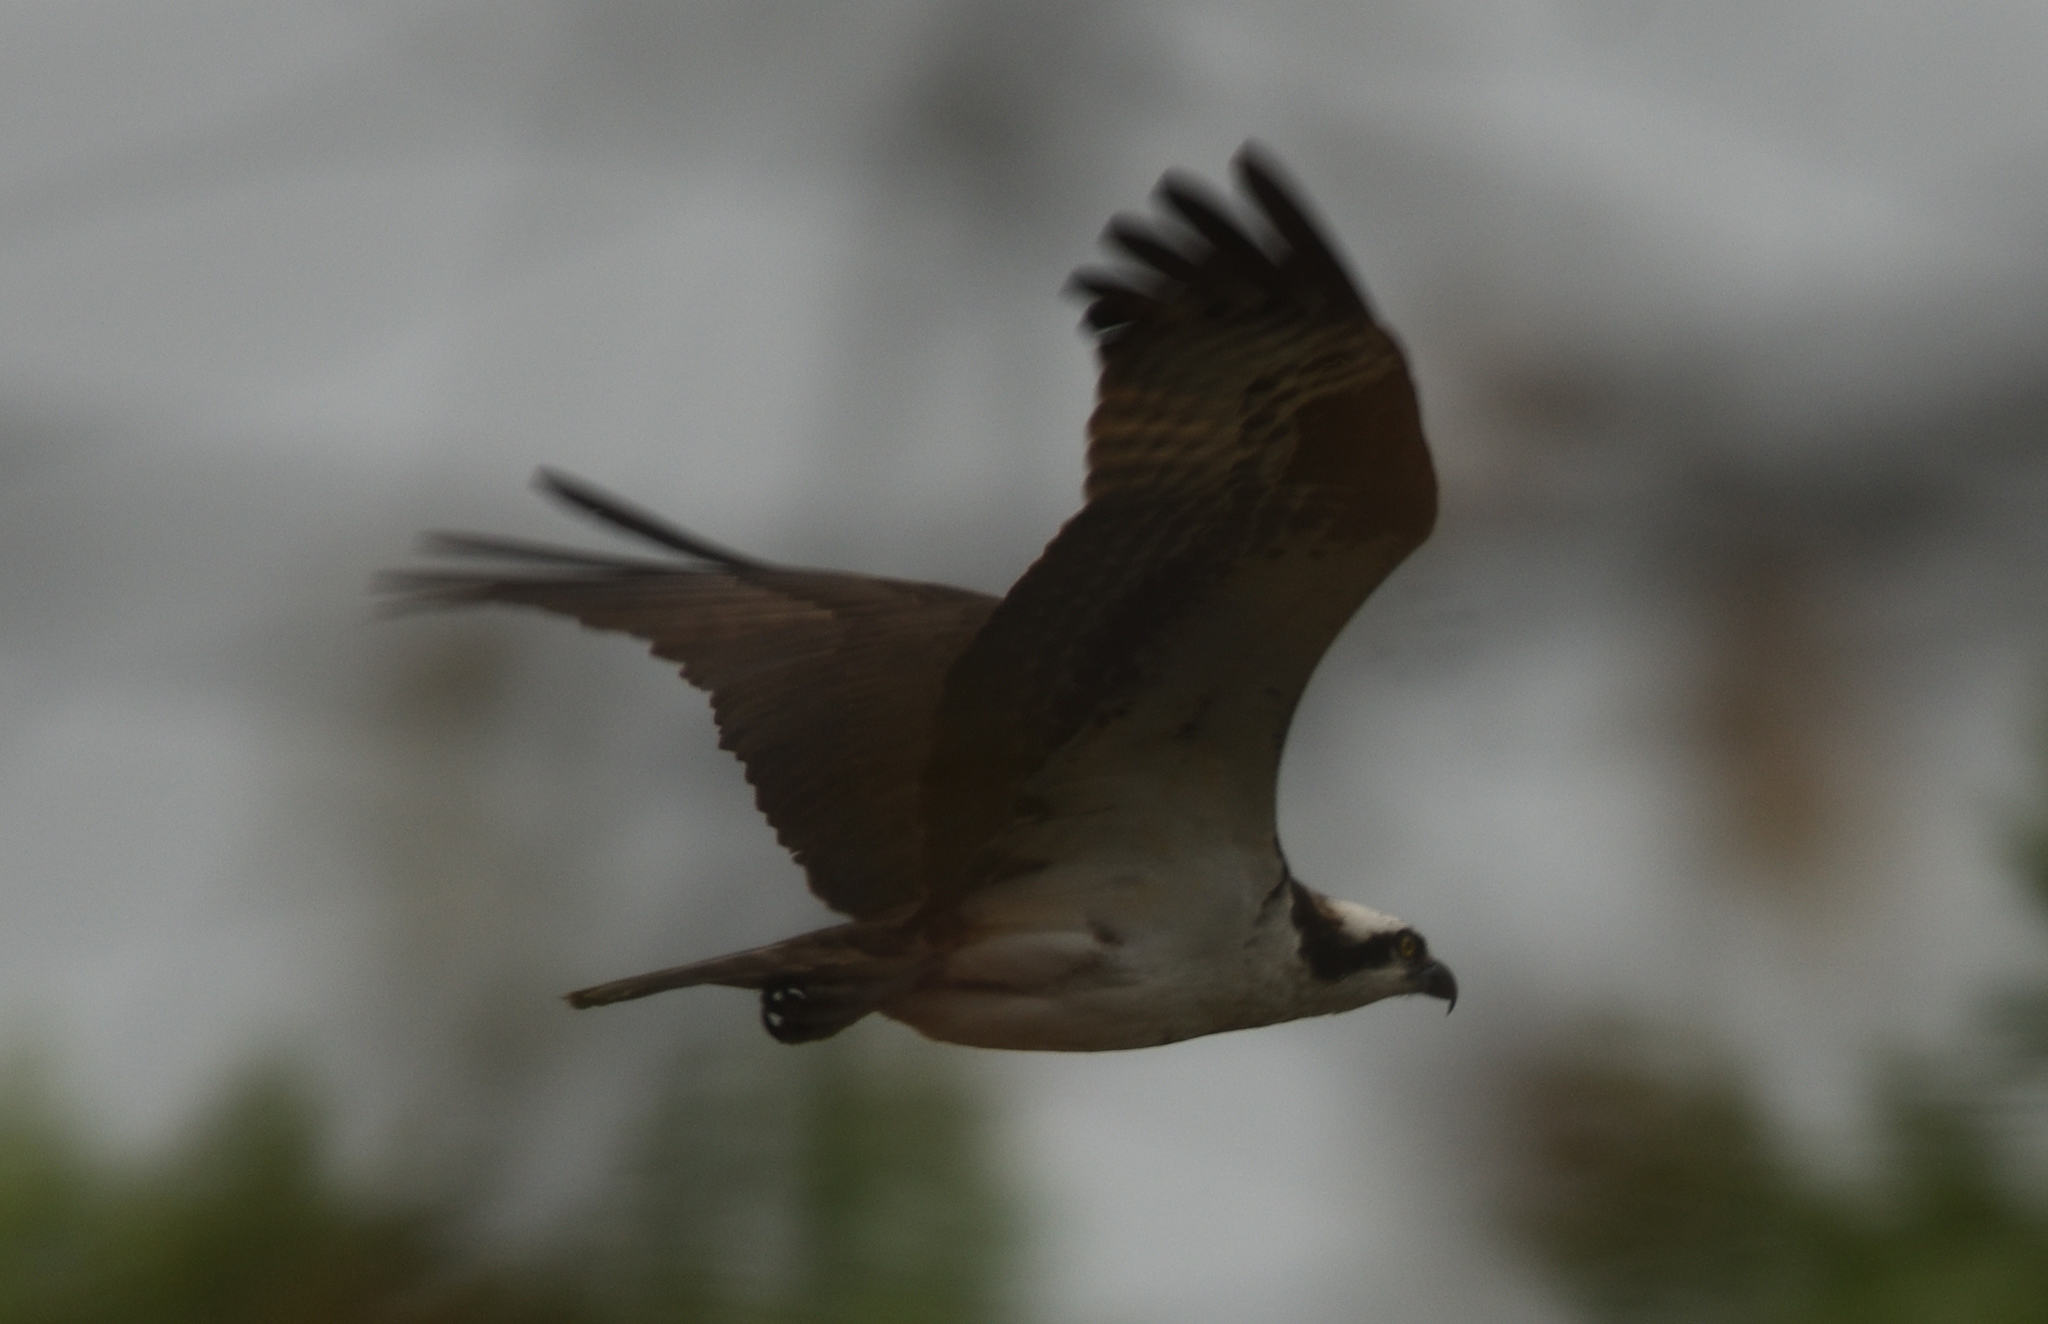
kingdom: Animalia
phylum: Chordata
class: Aves
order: Accipitriformes
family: Pandionidae
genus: Pandion
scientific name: Pandion haliaetus
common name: Osprey
